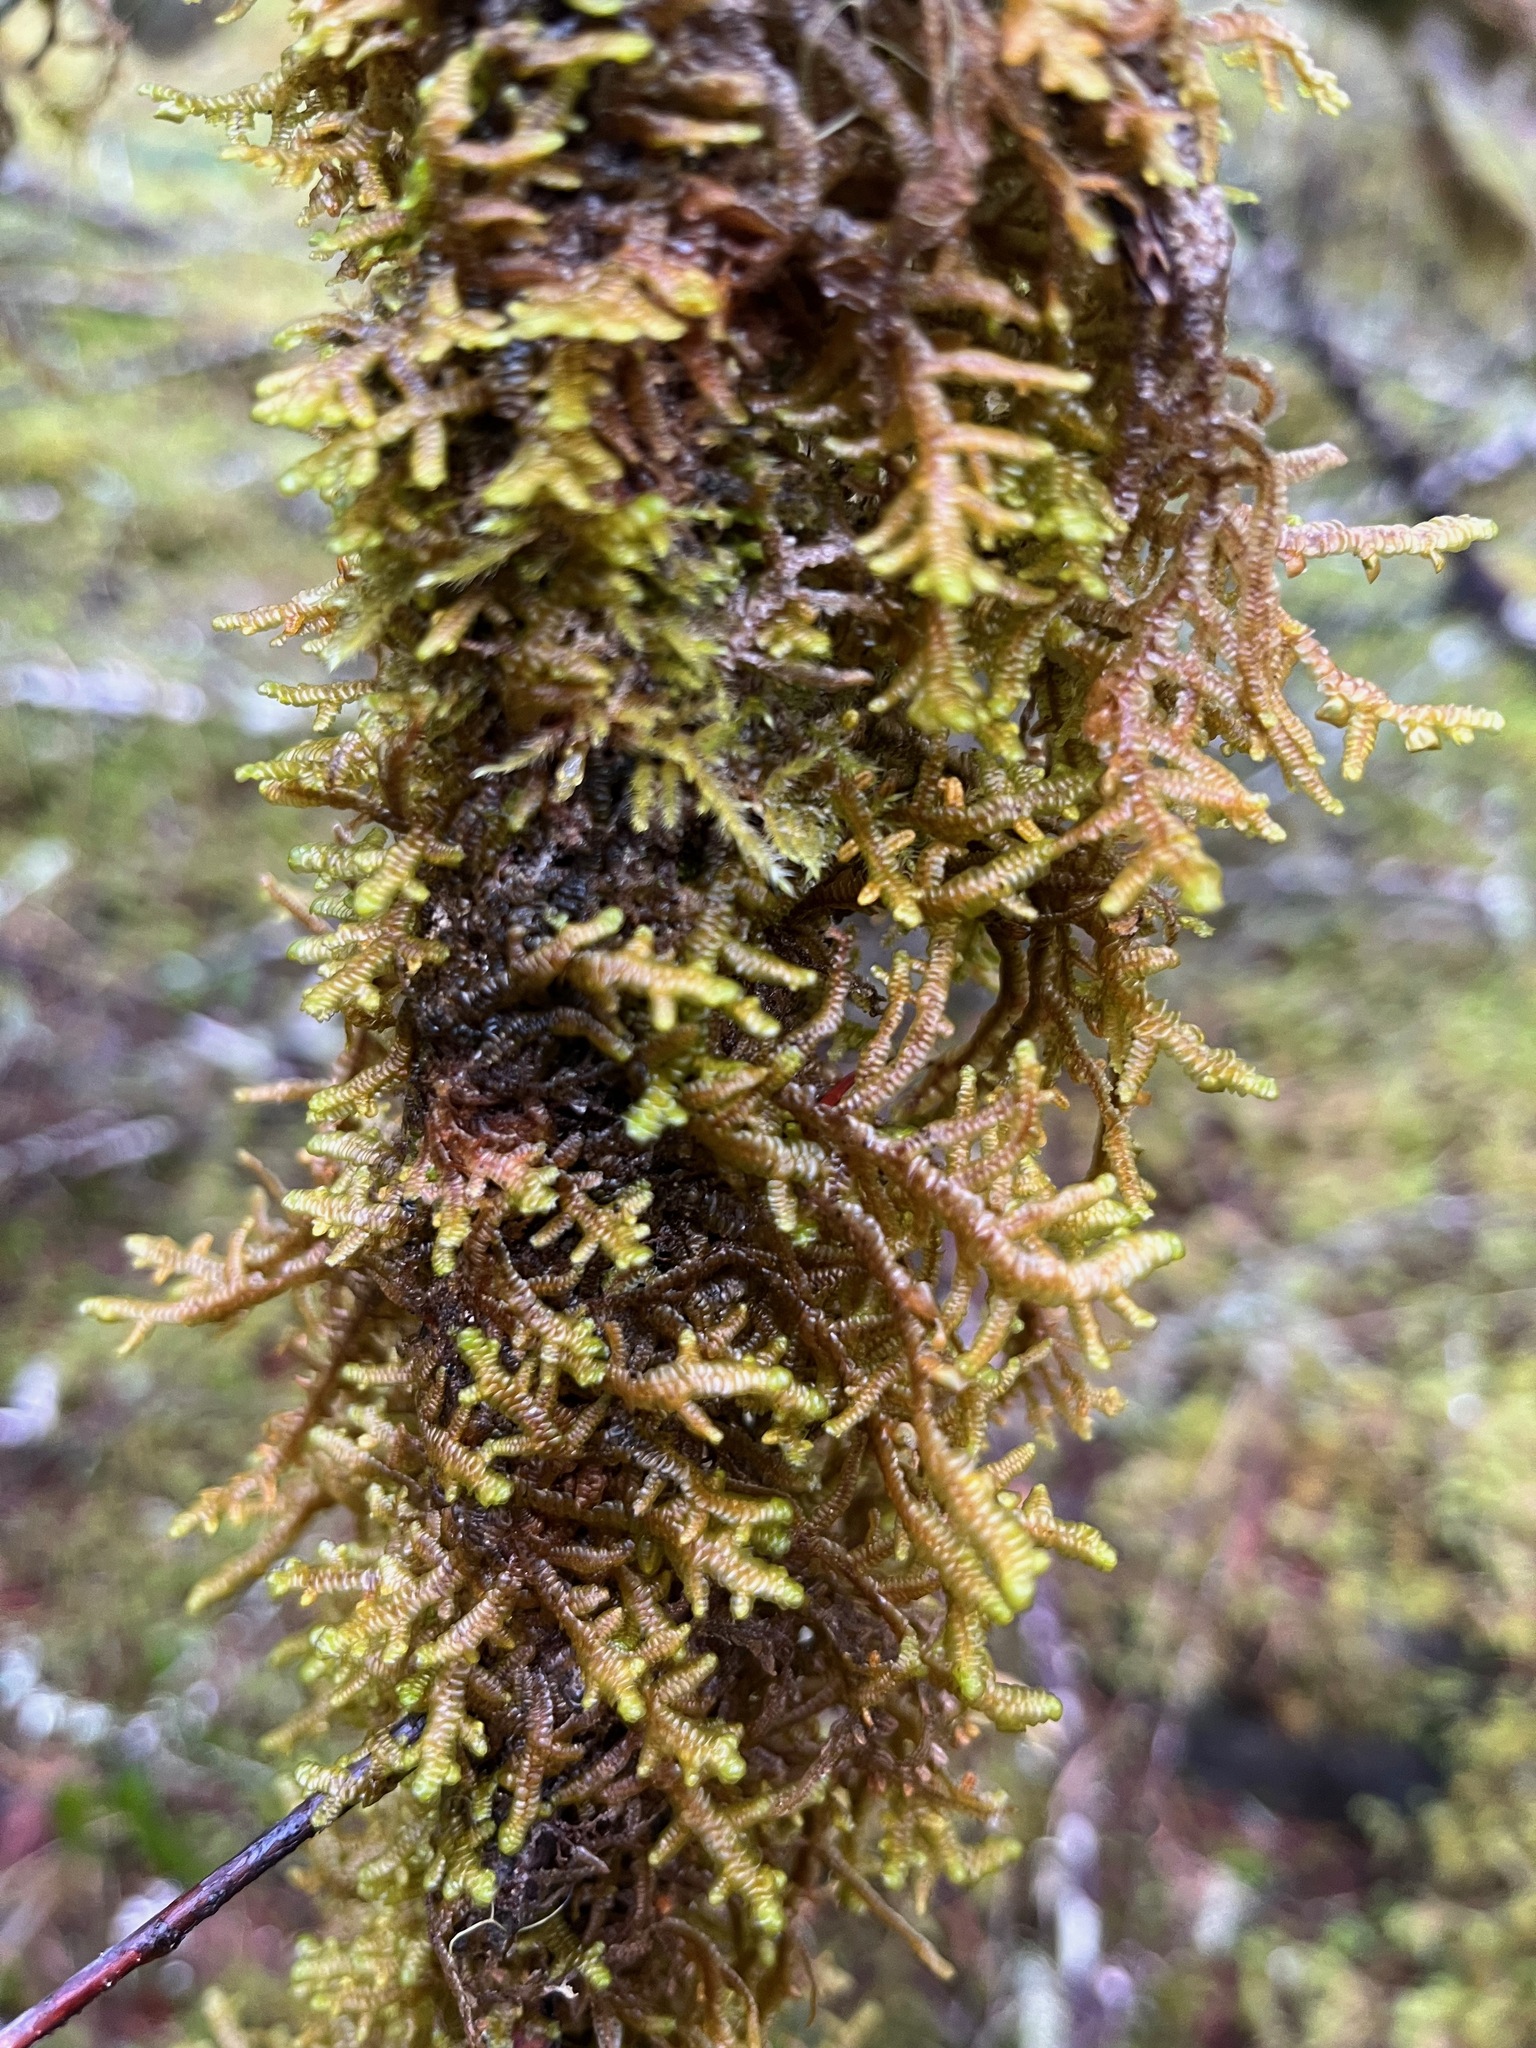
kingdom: Plantae
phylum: Marchantiophyta
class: Jungermanniopsida
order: Porellales
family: Porellaceae
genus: Porella
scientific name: Porella navicularis
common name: Tree ruffle liverwort
